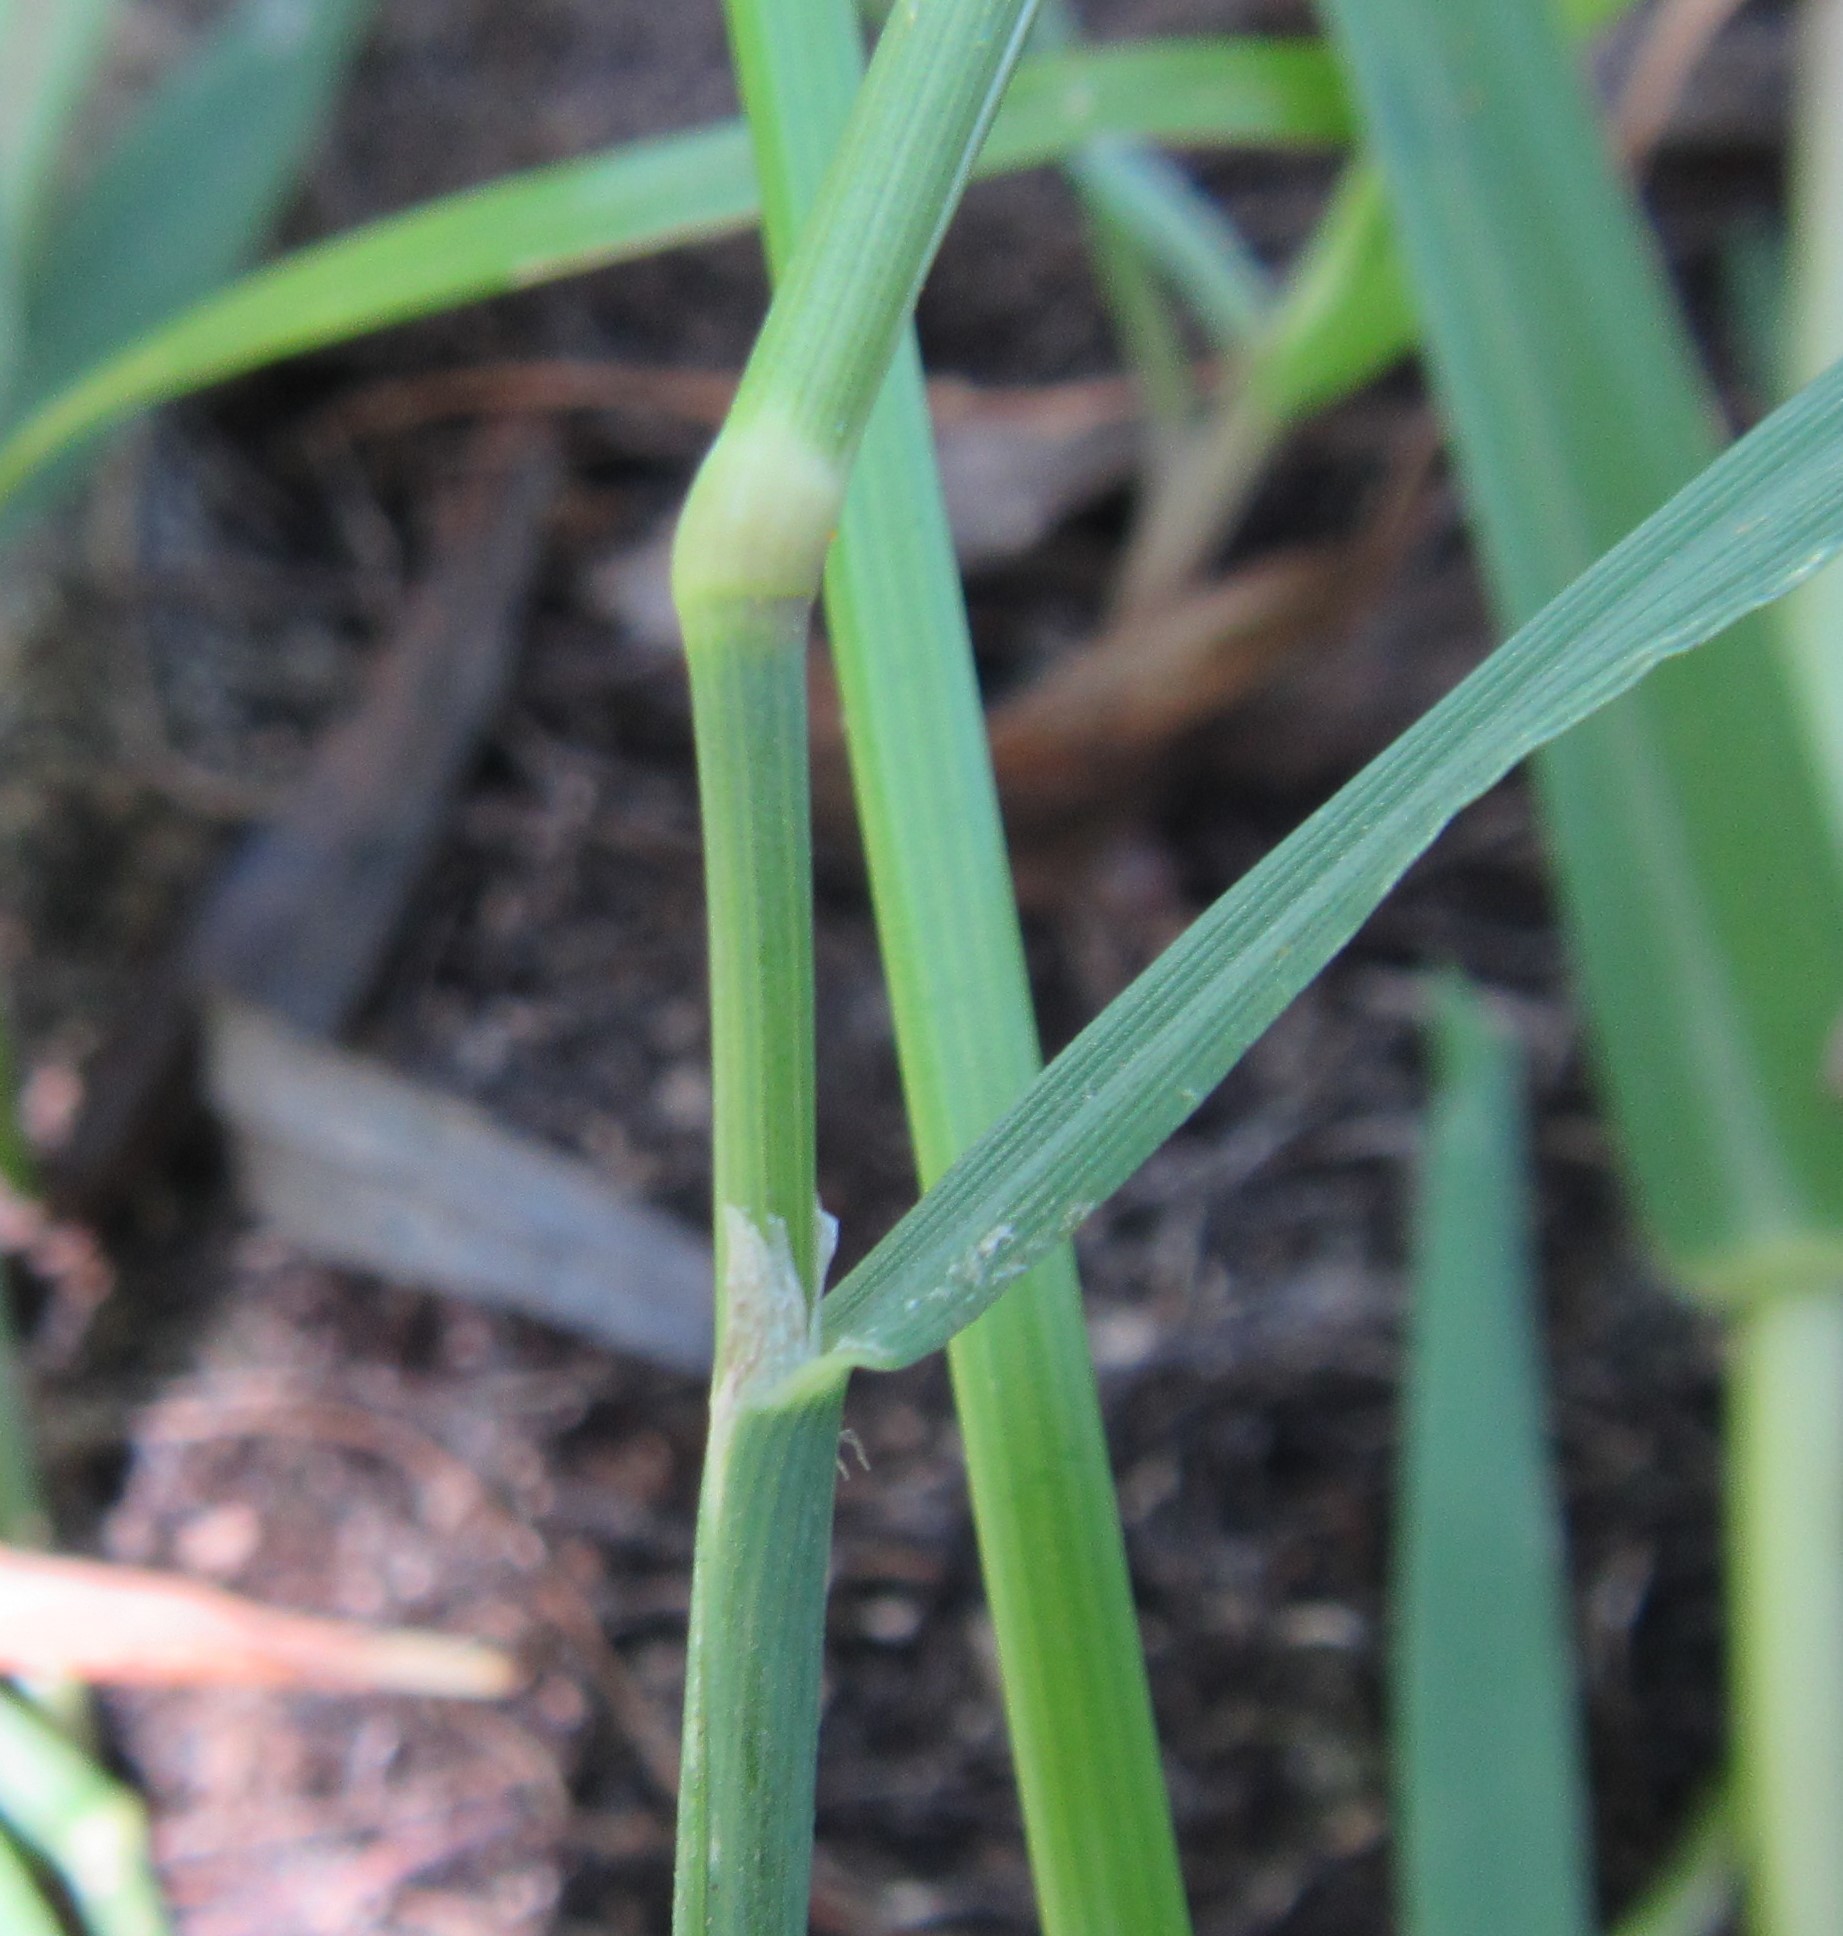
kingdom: Plantae
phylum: Tracheophyta
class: Liliopsida
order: Poales
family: Poaceae
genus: Polypogon
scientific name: Polypogon viridis
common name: Water bent
